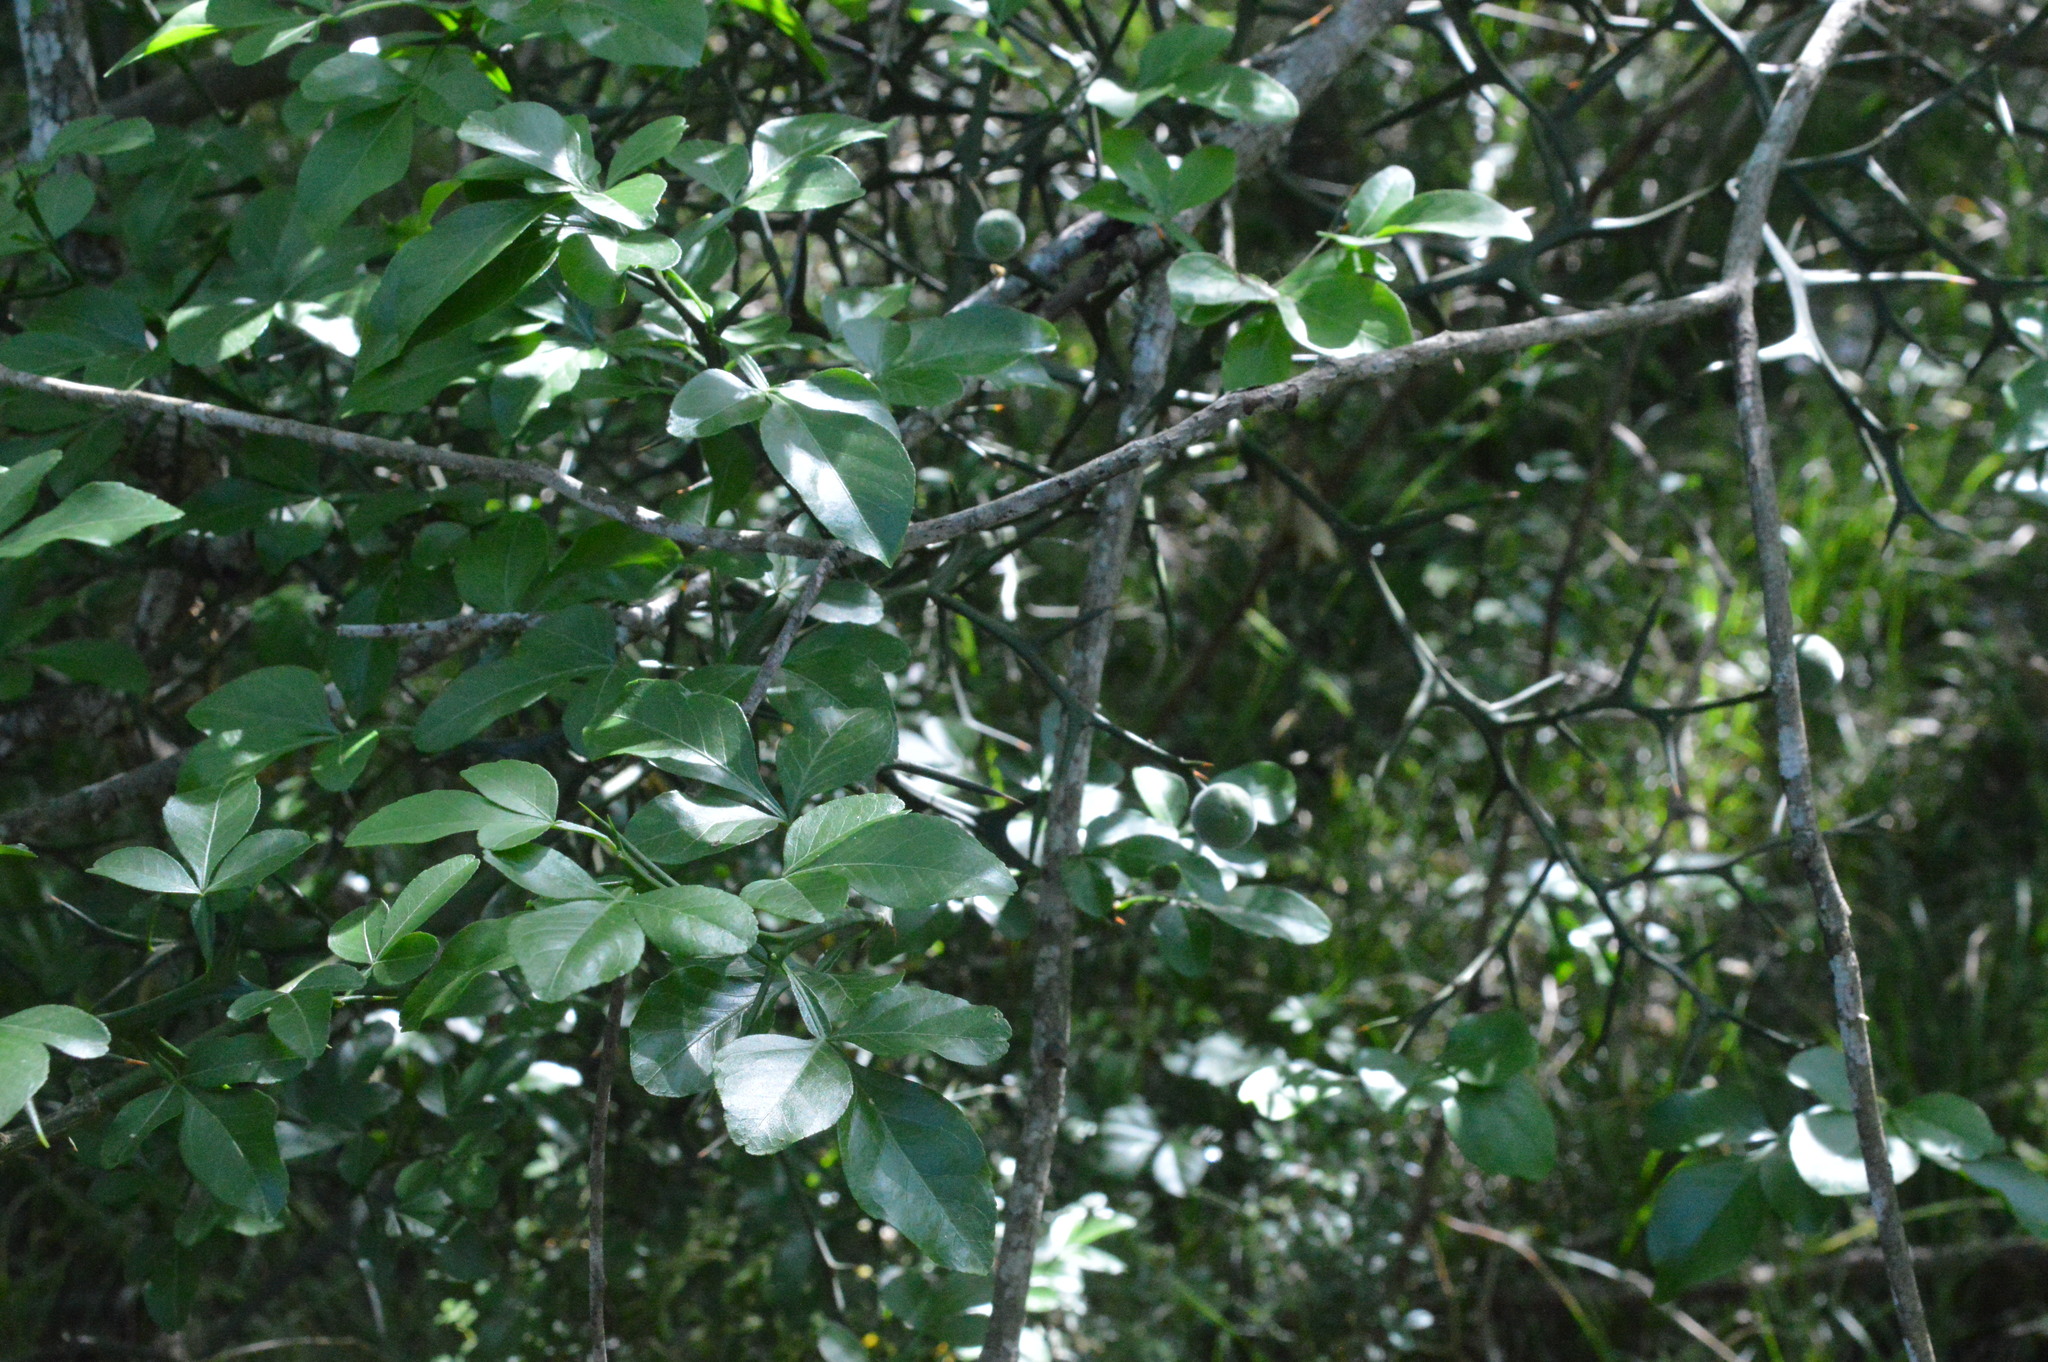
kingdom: Plantae
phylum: Tracheophyta
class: Magnoliopsida
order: Sapindales
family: Rutaceae
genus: Citrus
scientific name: Citrus trifoliata
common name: Japanese bitter-orange
